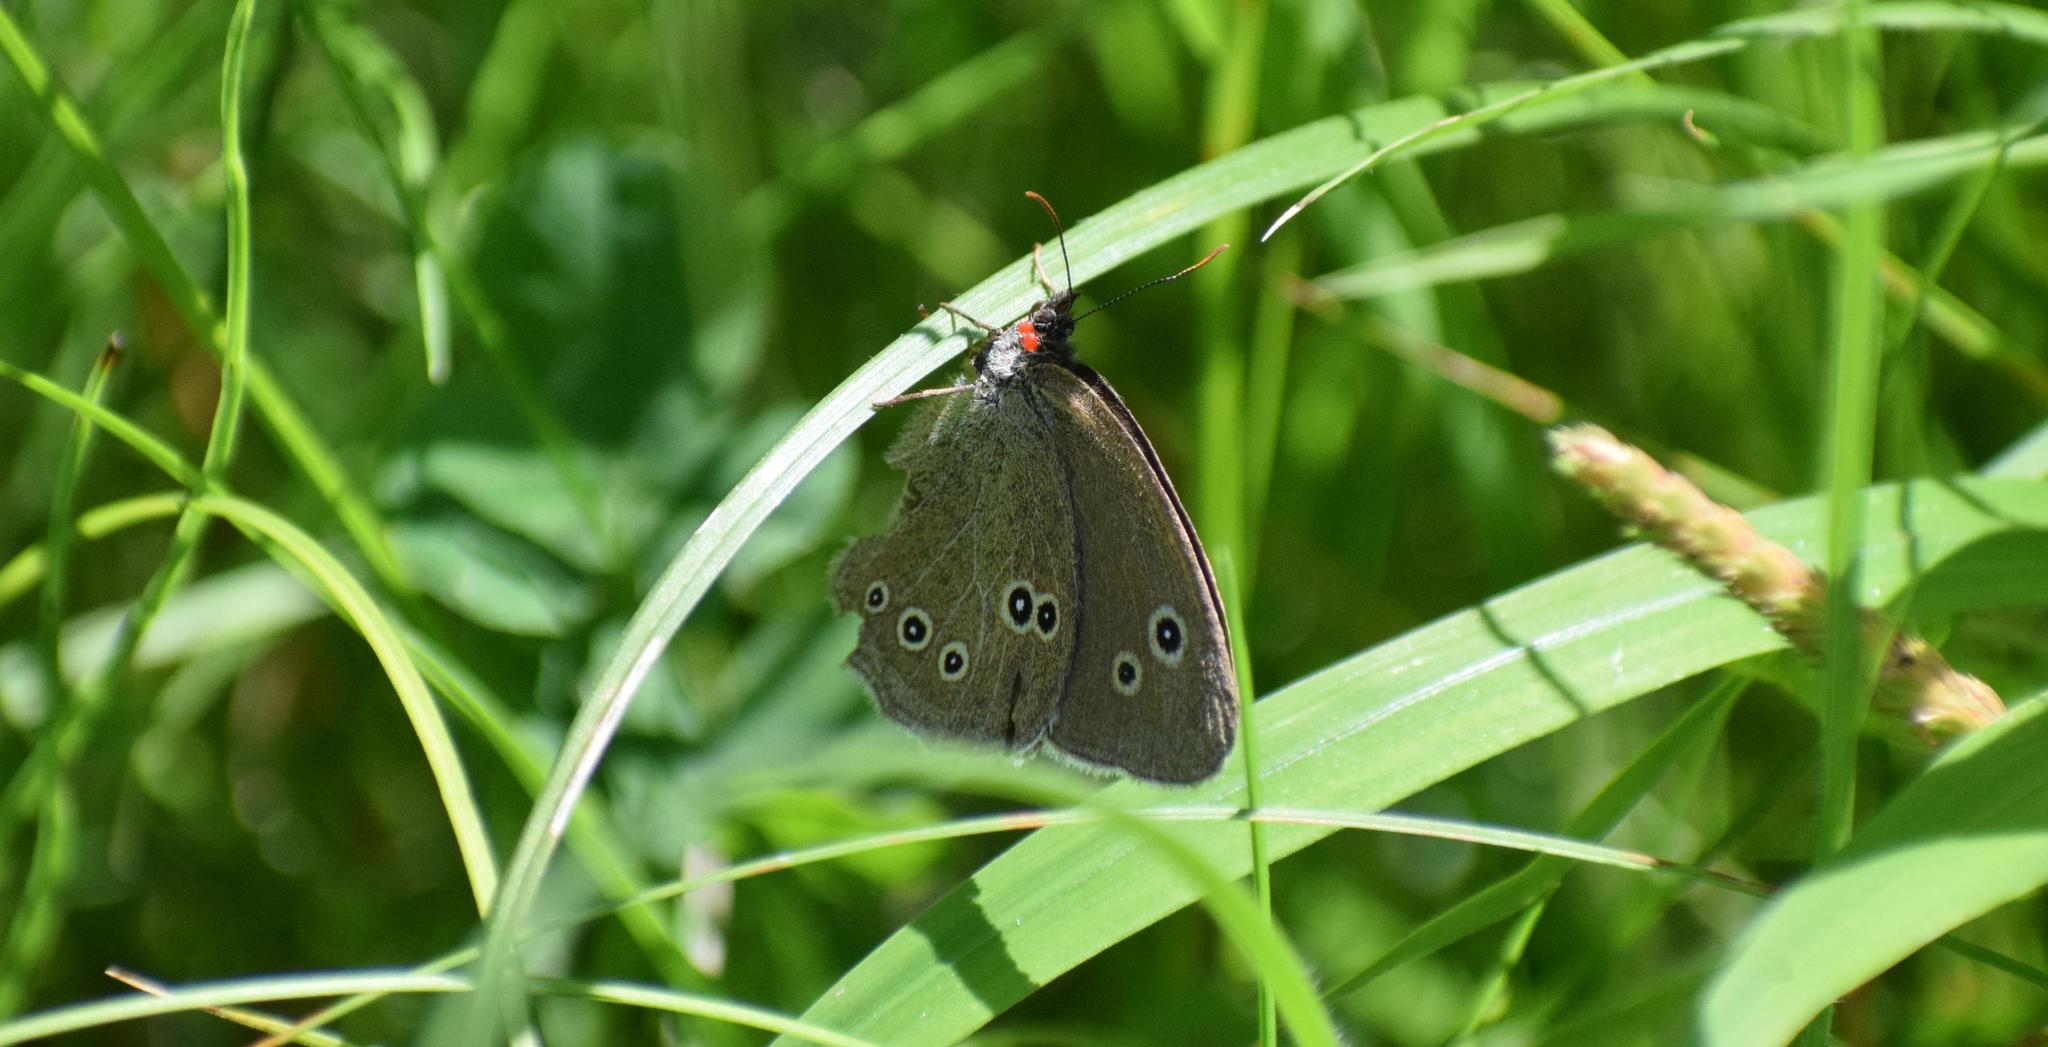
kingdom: Animalia
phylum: Arthropoda
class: Insecta
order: Lepidoptera
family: Nymphalidae
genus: Aphantopus
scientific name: Aphantopus hyperantus
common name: Ringlet
